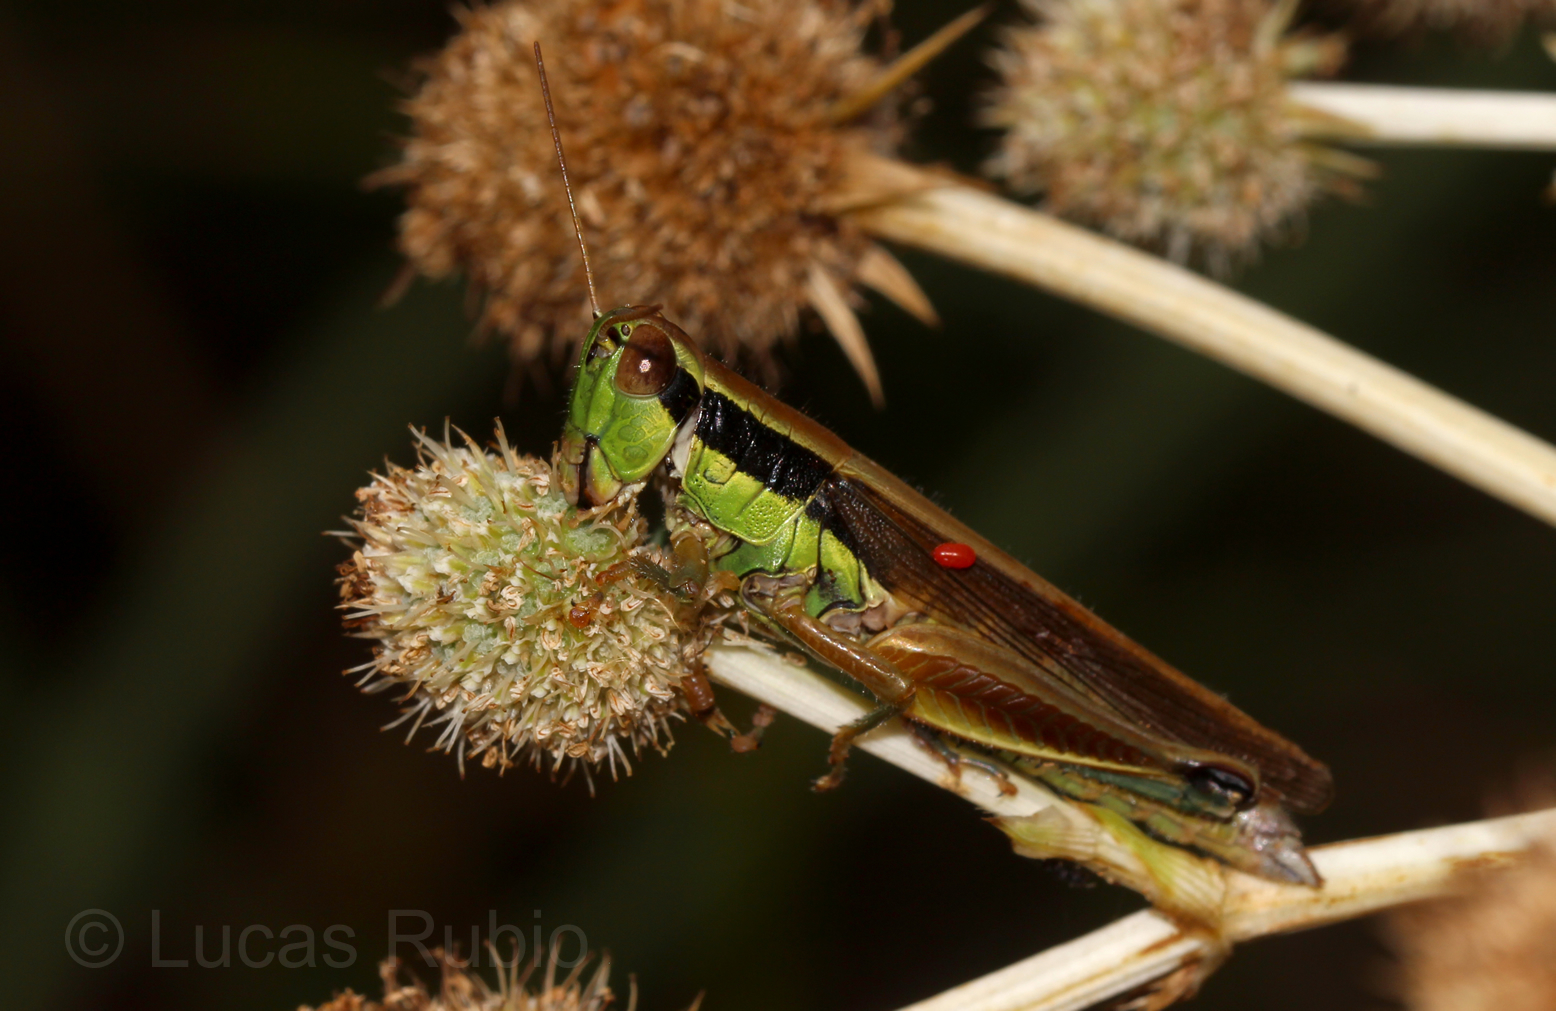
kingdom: Animalia
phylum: Arthropoda
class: Insecta
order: Orthoptera
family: Acrididae
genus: Scotussa
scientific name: Scotussa impudica
